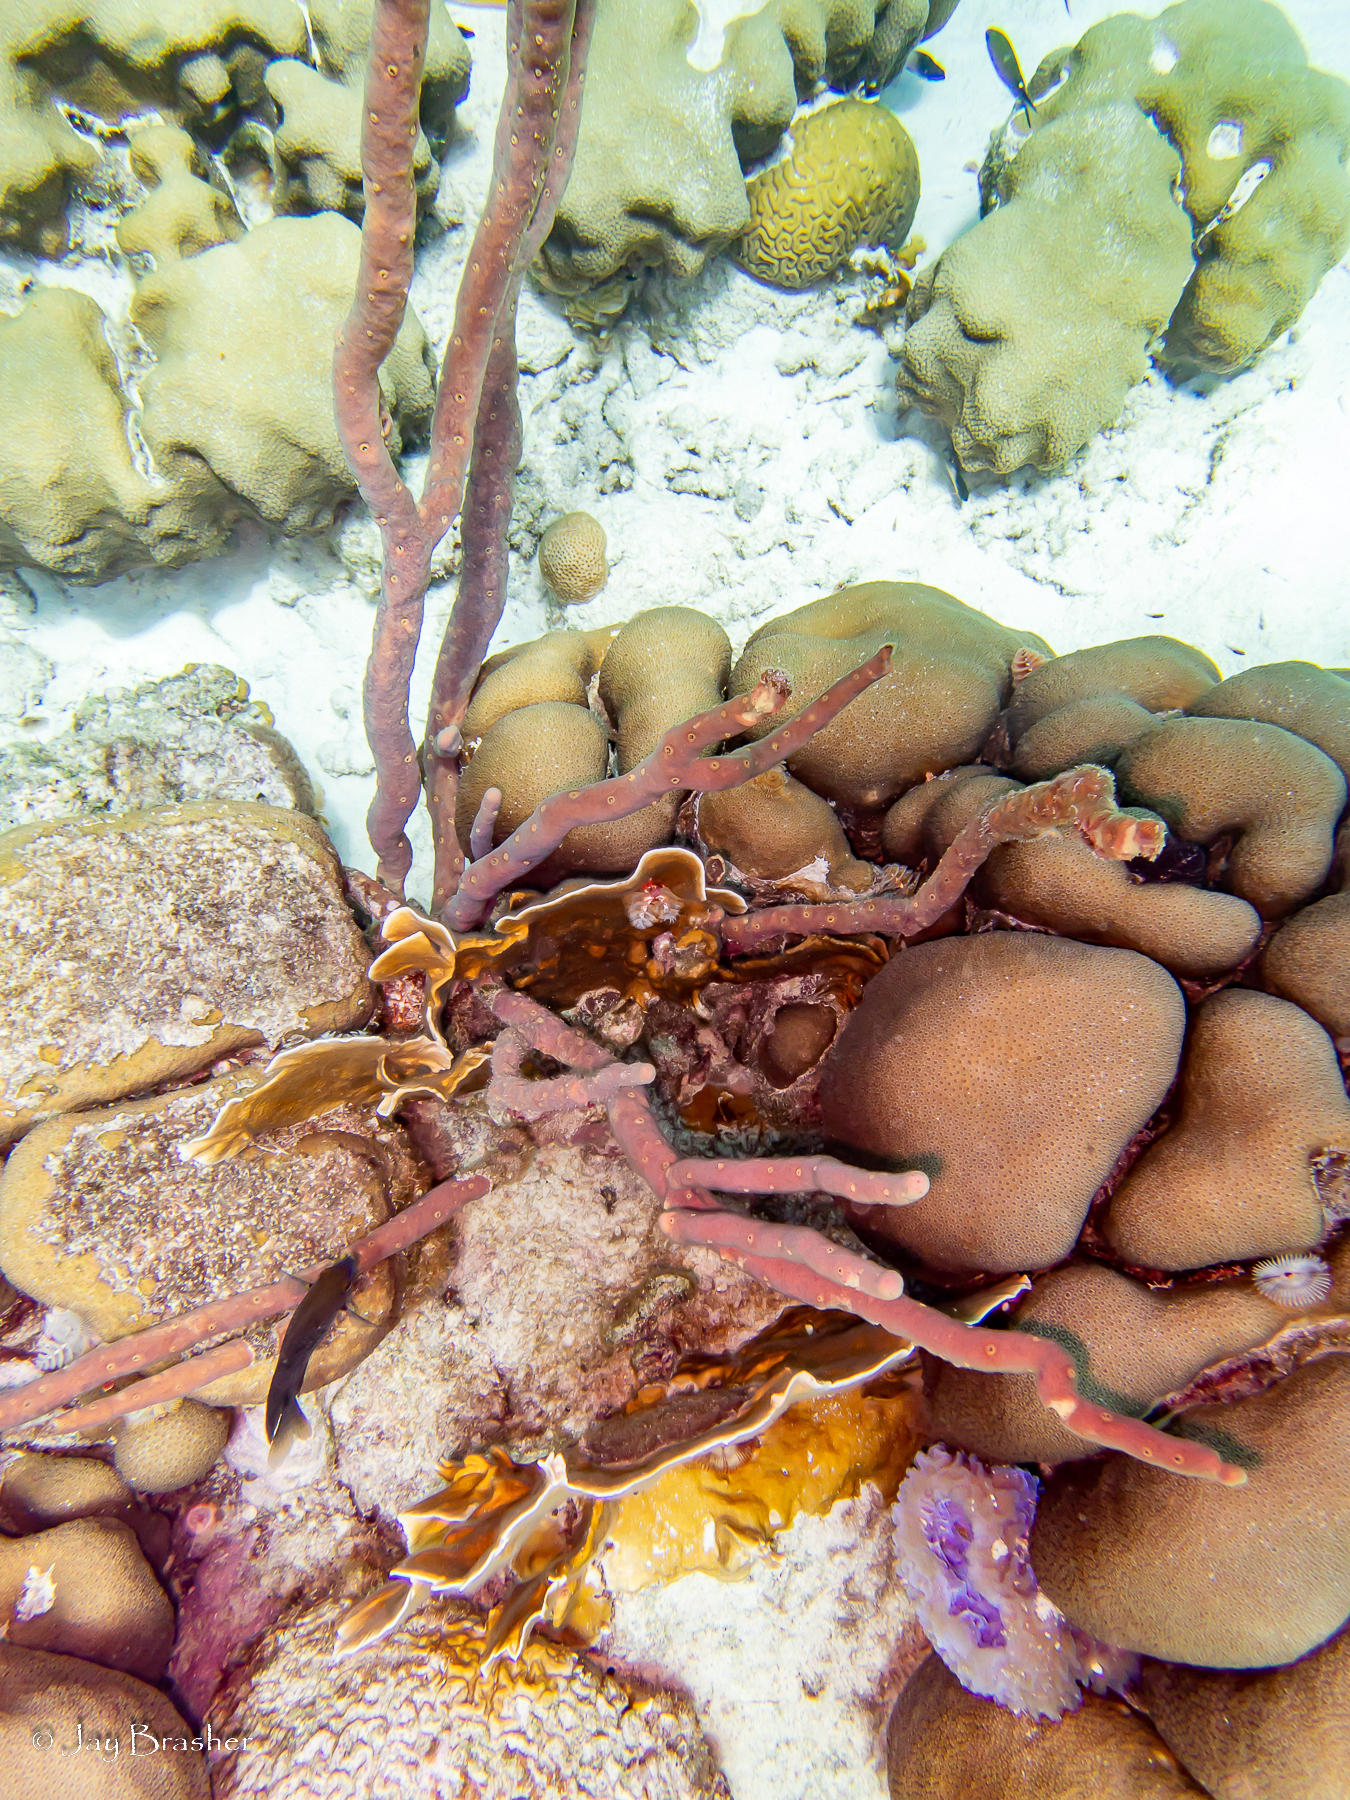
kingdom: Animalia
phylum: Porifera
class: Demospongiae
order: Verongiida
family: Aplysinidae
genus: Aplysina
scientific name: Aplysina cauliformis
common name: Branching candle sponge
